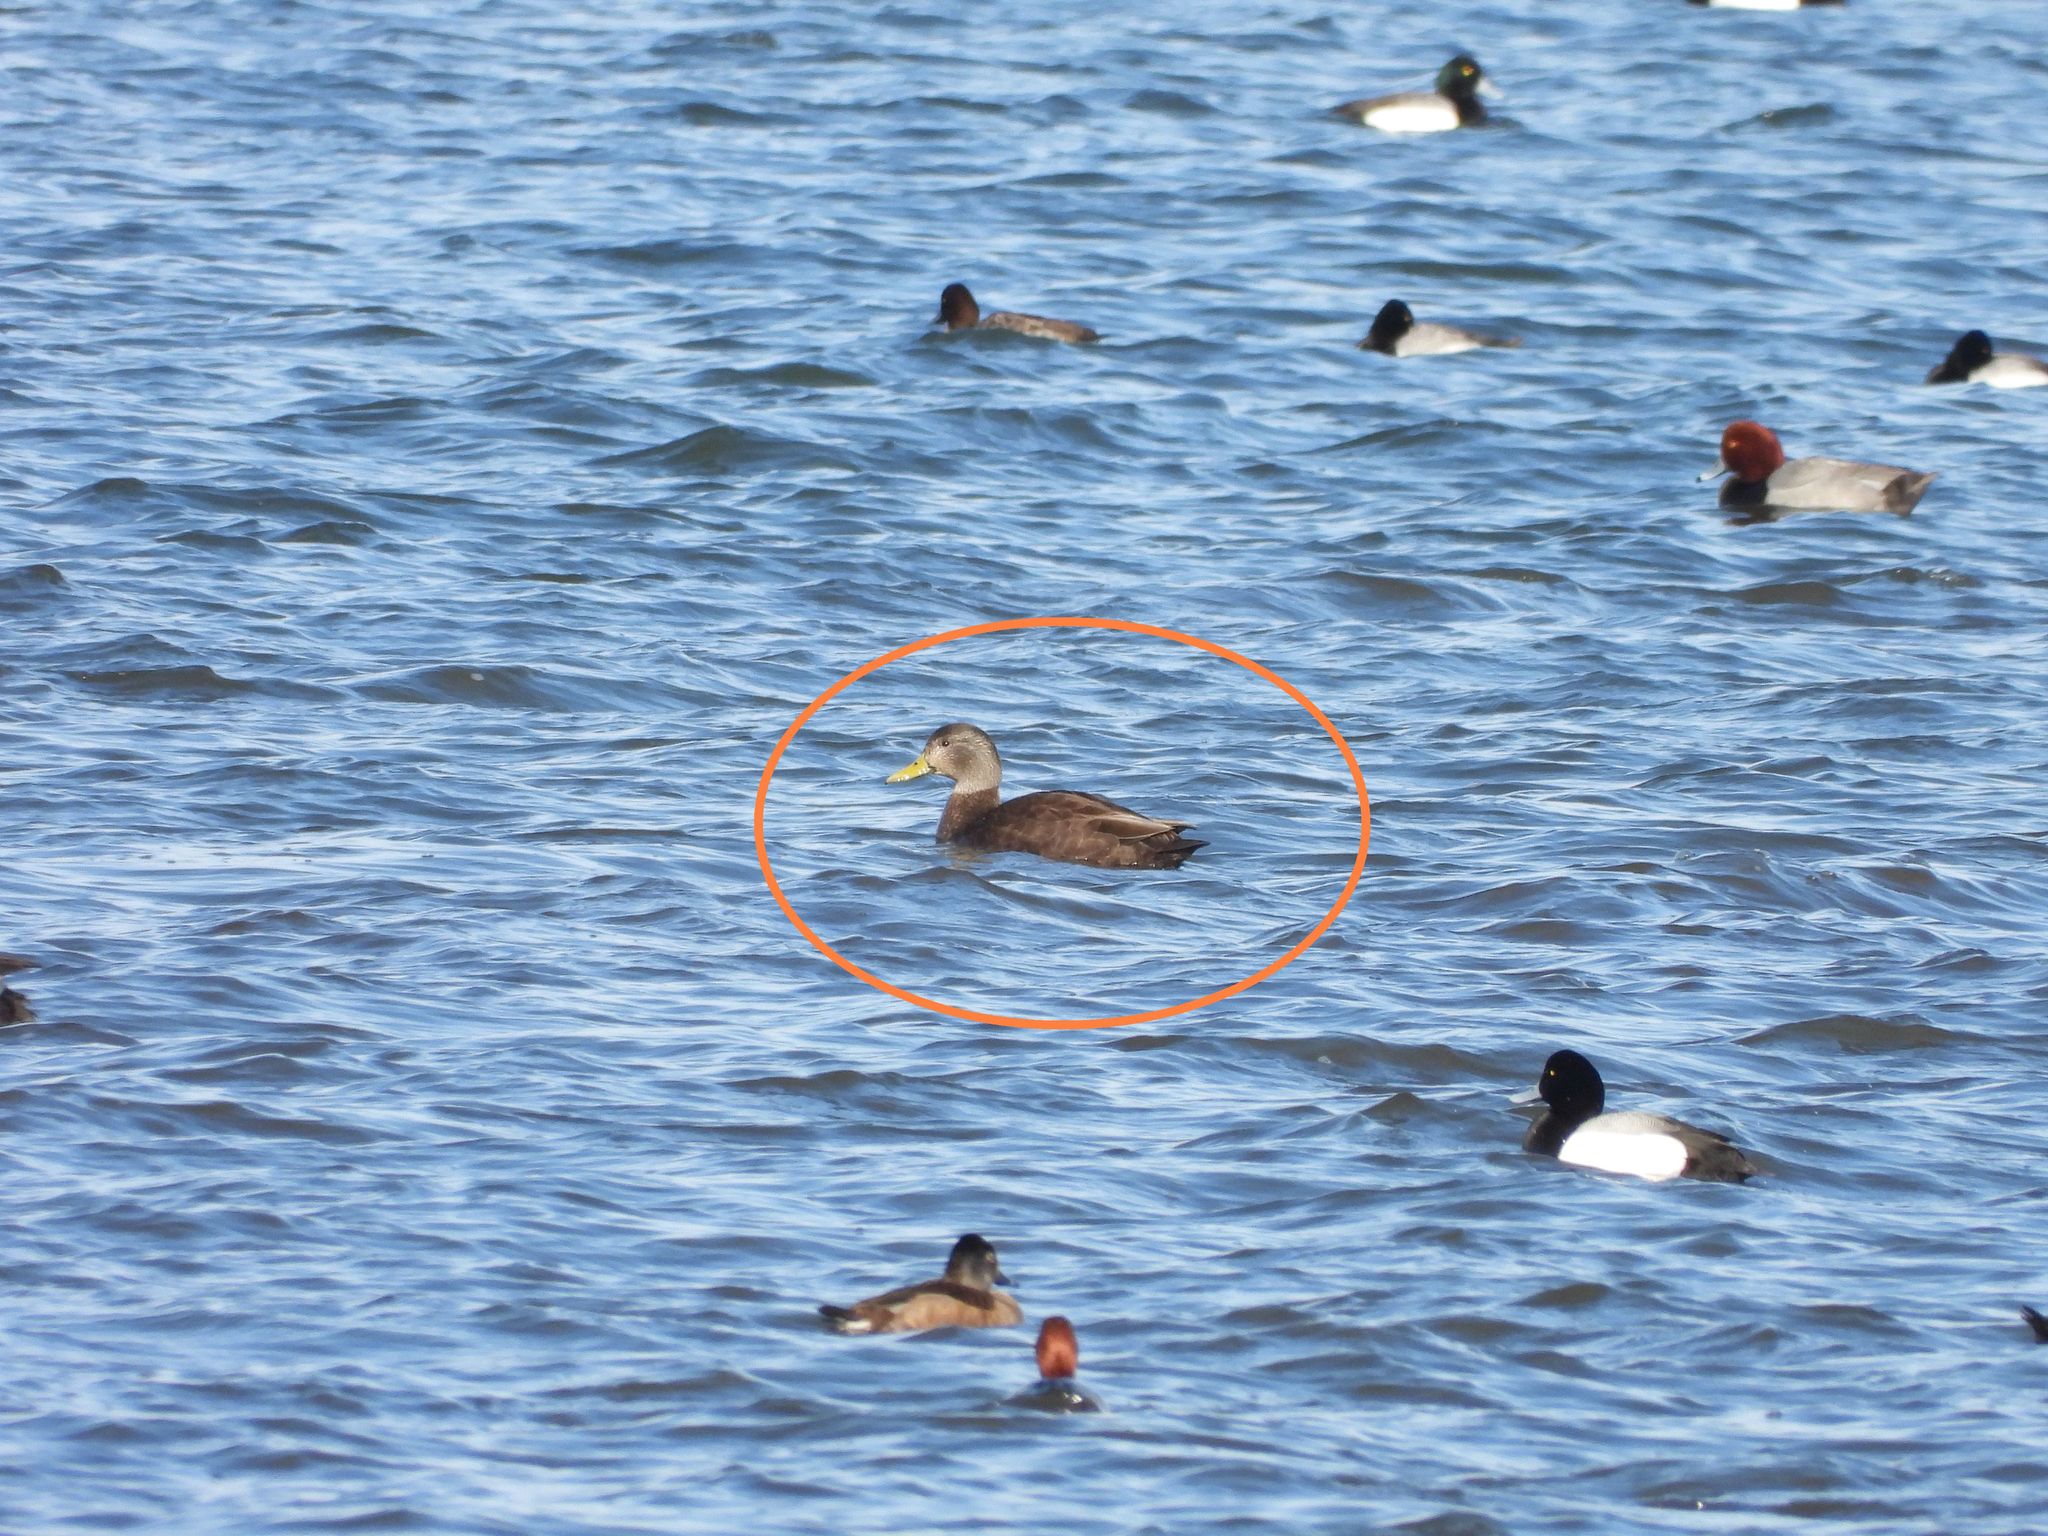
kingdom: Animalia
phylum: Chordata
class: Aves
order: Anseriformes
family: Anatidae
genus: Anas
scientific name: Anas rubripes
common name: American black duck
